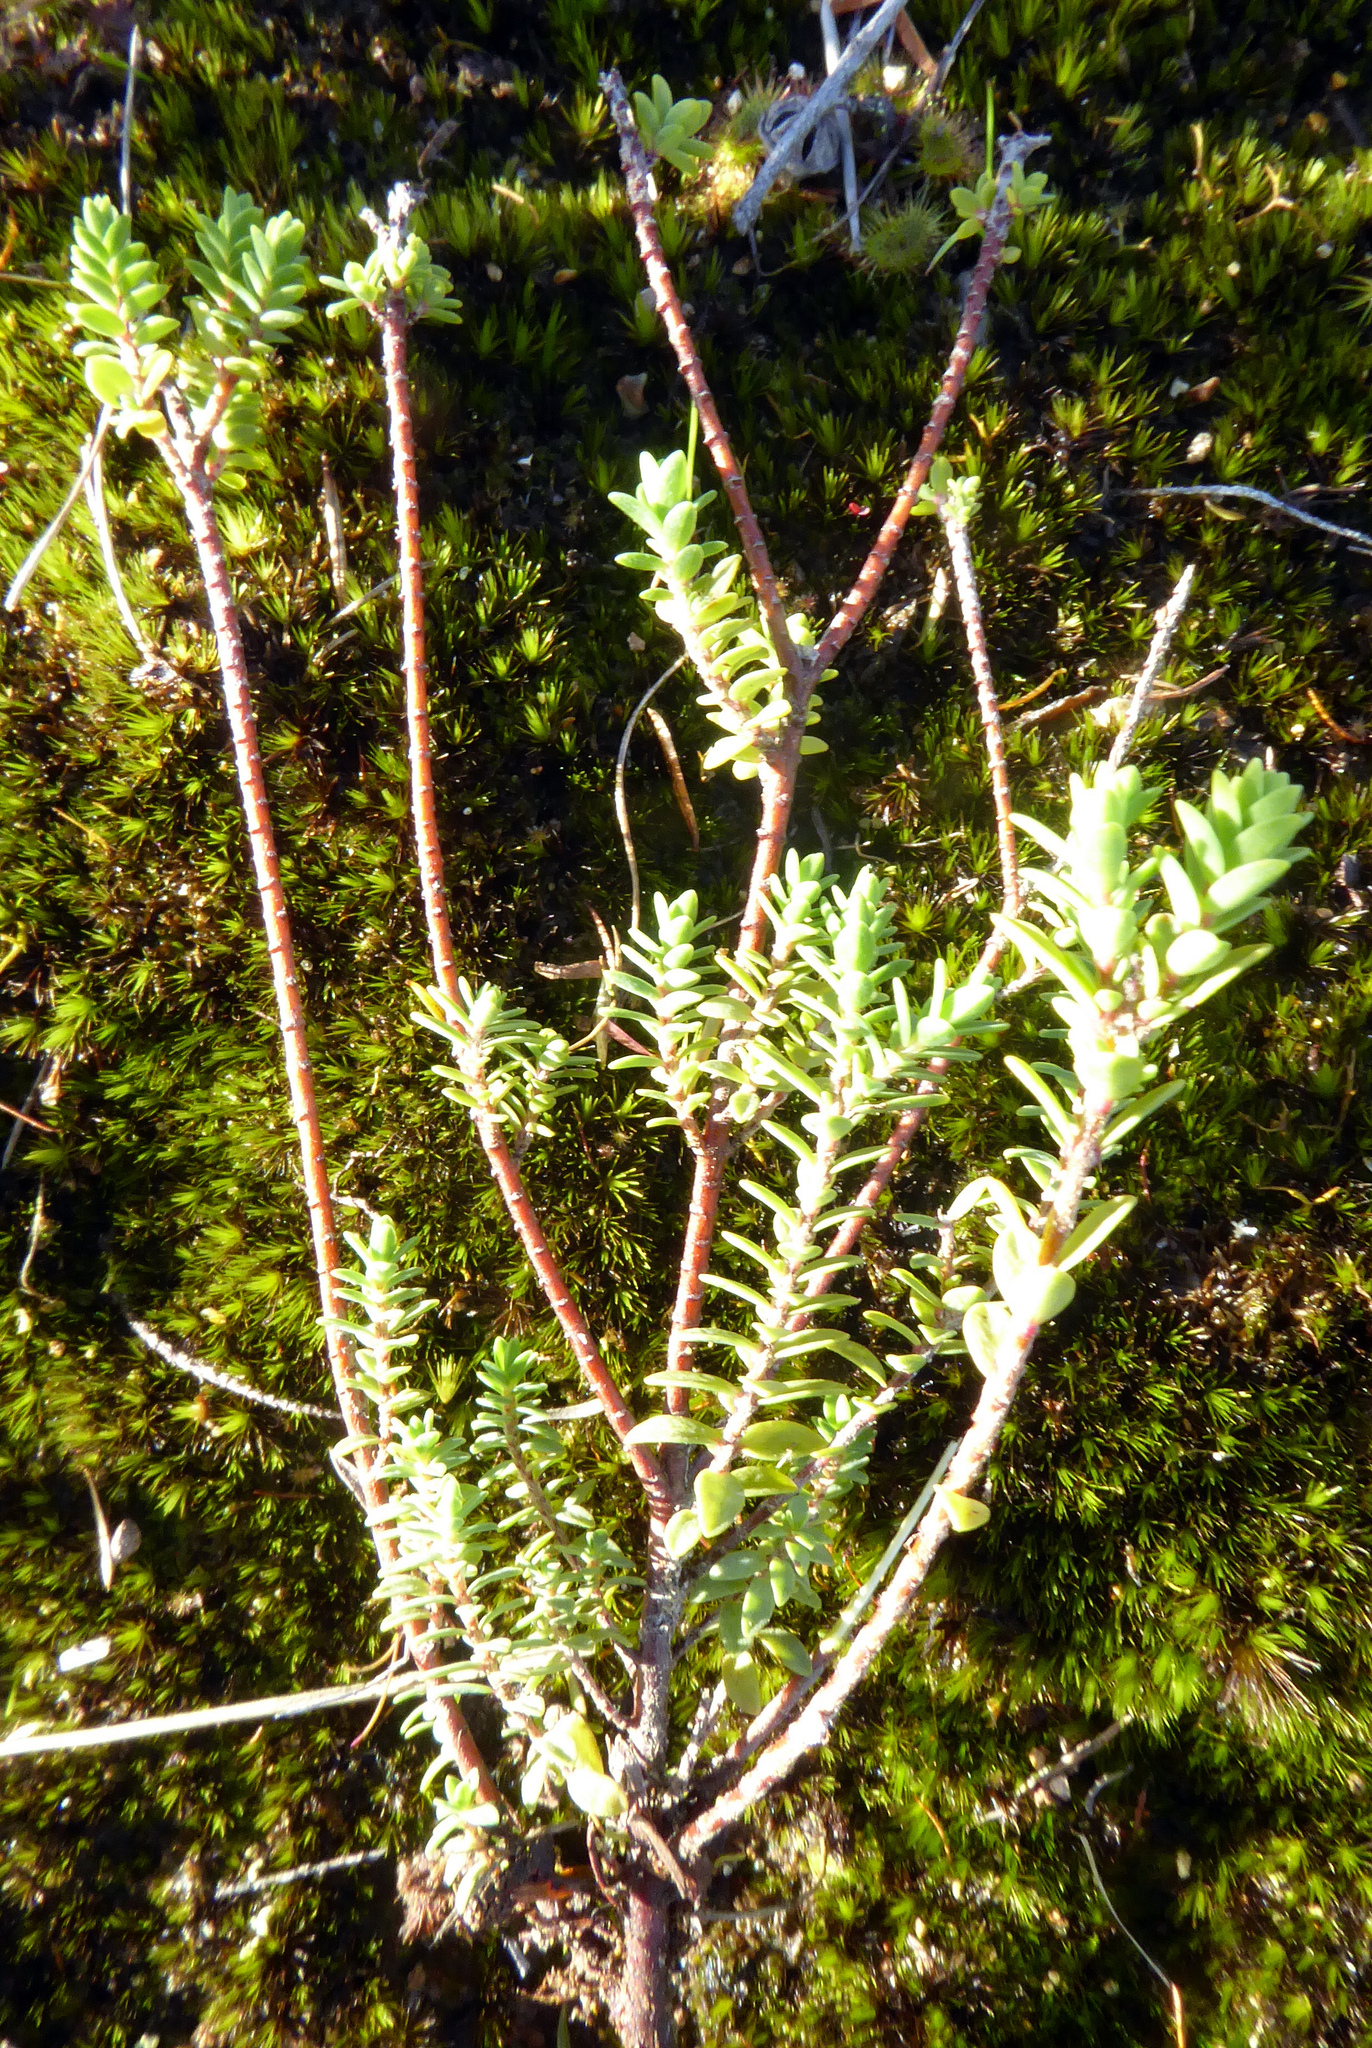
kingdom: Plantae
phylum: Tracheophyta
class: Magnoliopsida
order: Malvales
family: Thymelaeaceae
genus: Pimelea
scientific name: Pimelea orthia
